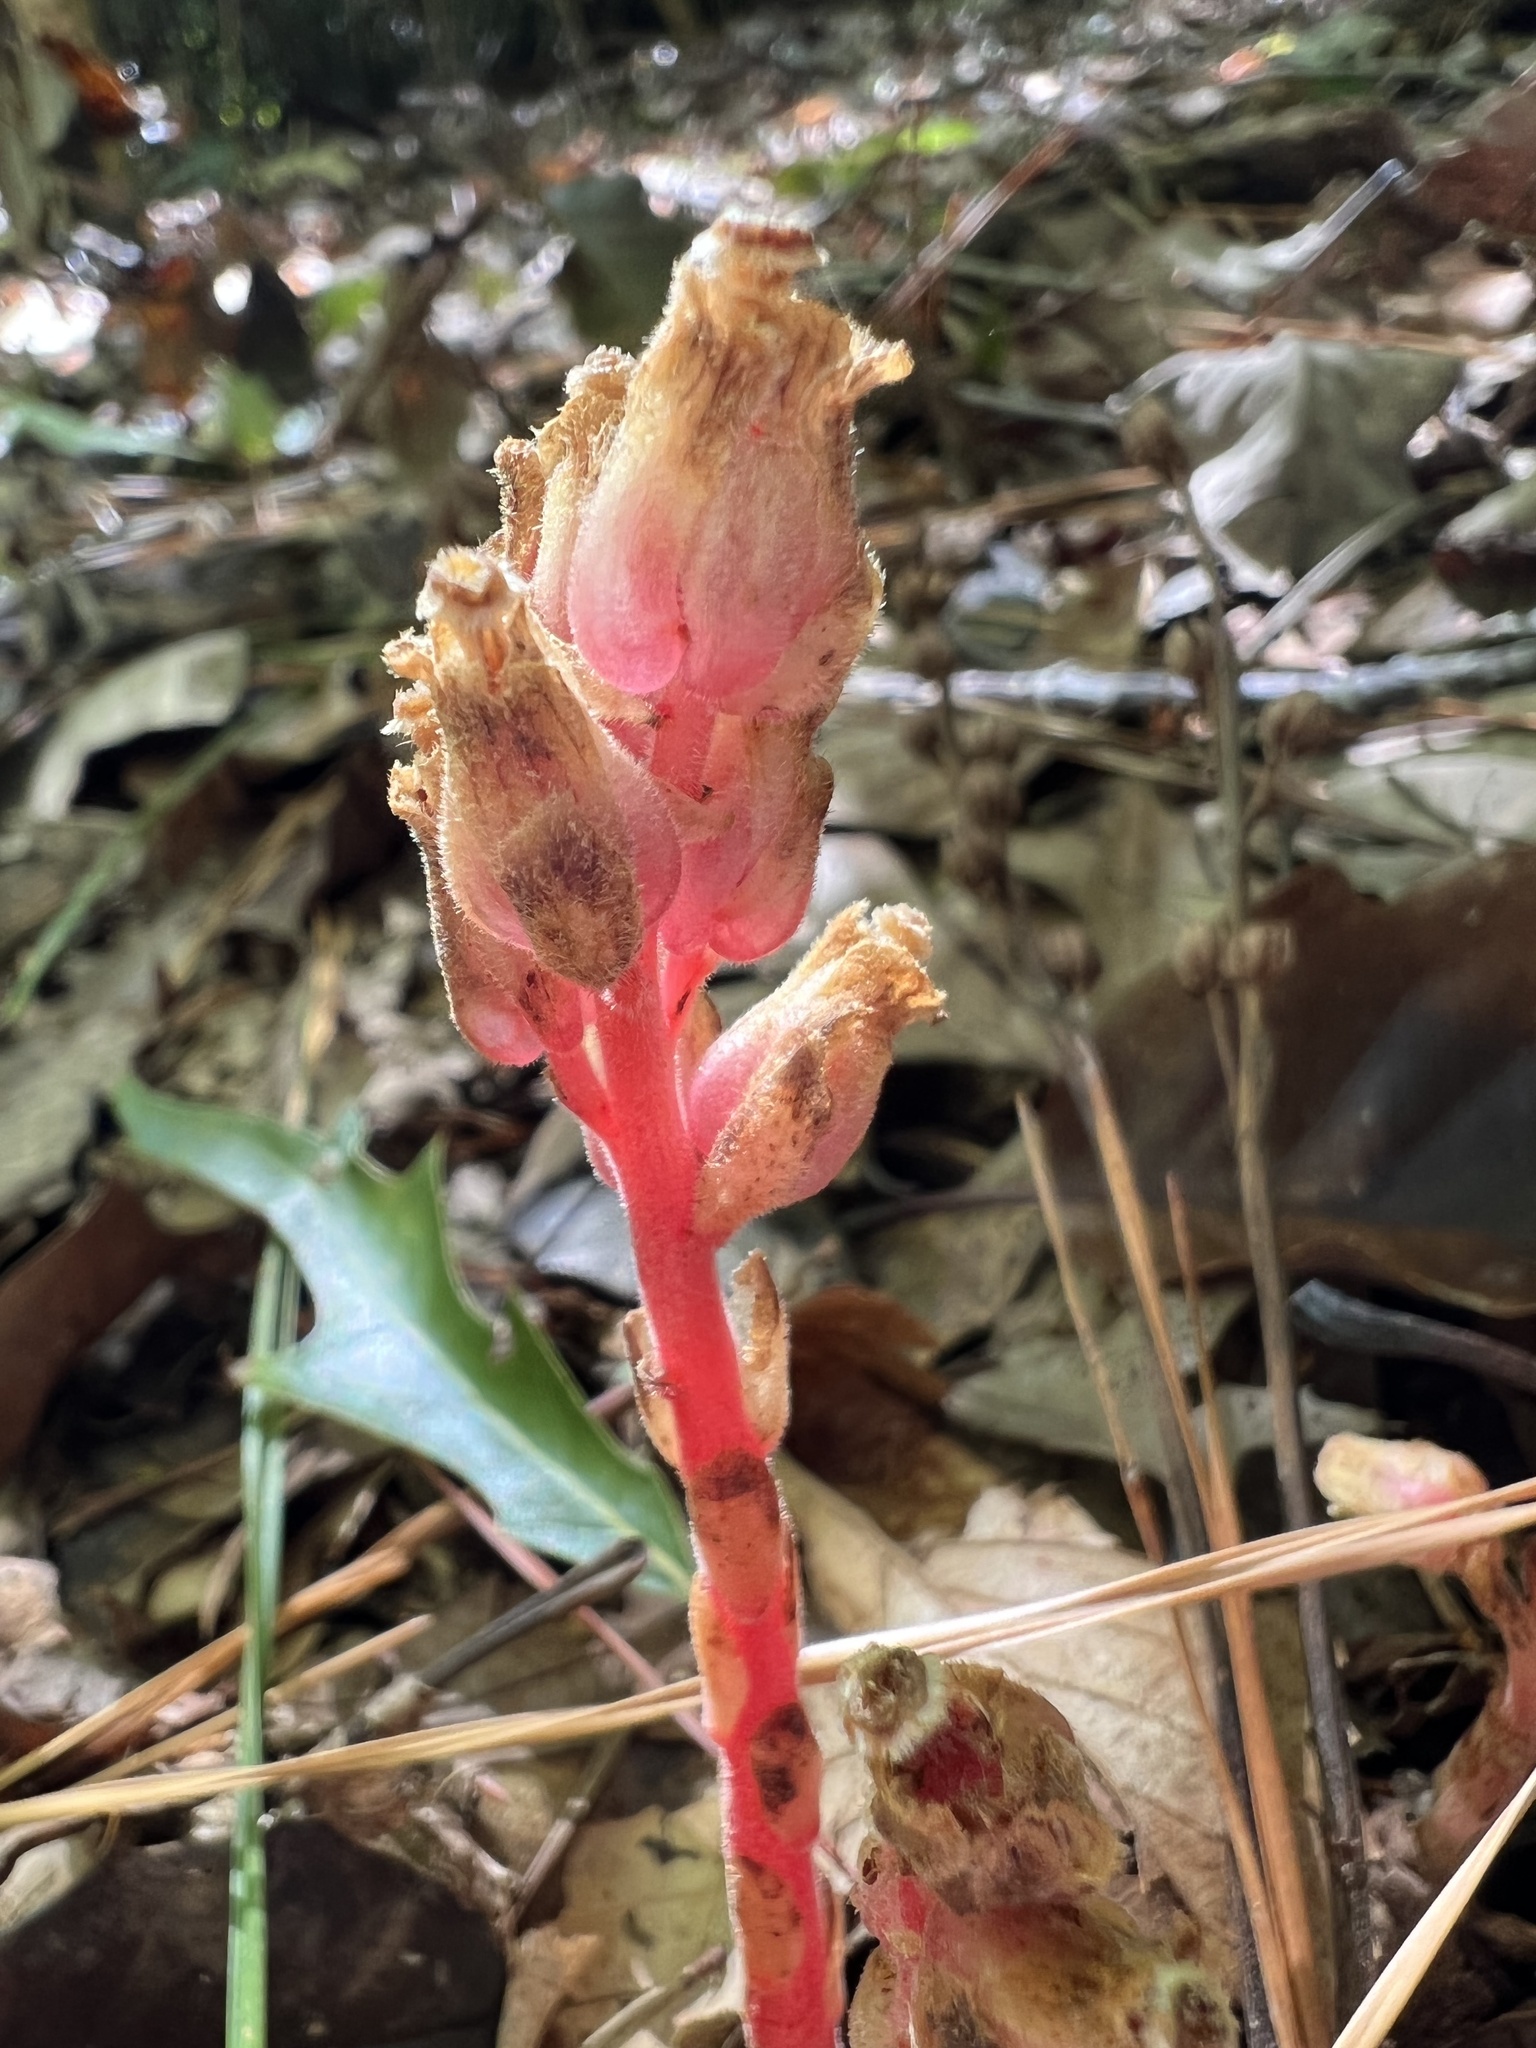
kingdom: Plantae
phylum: Tracheophyta
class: Magnoliopsida
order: Ericales
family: Ericaceae
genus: Hypopitys
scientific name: Hypopitys monotropa
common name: Yellow bird's-nest
